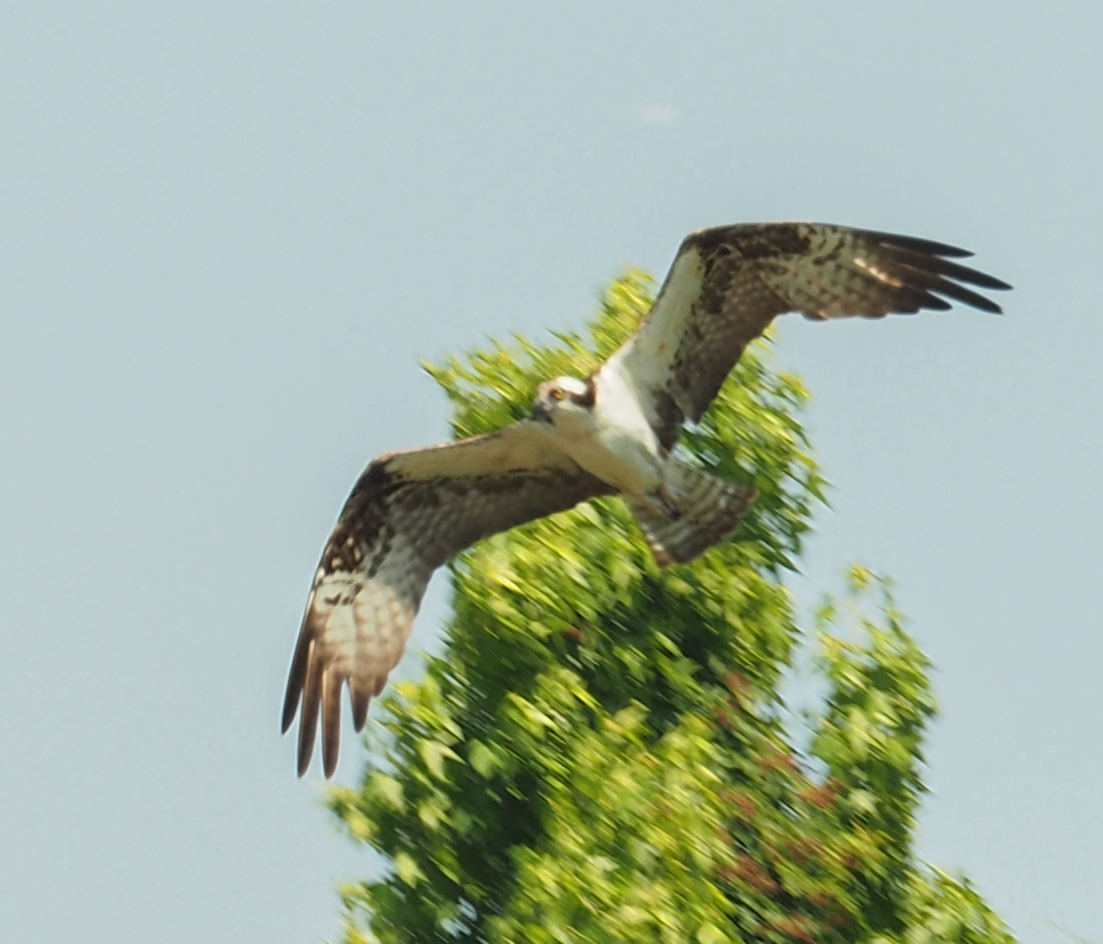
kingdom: Animalia
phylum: Chordata
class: Aves
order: Accipitriformes
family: Pandionidae
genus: Pandion
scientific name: Pandion haliaetus
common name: Osprey
